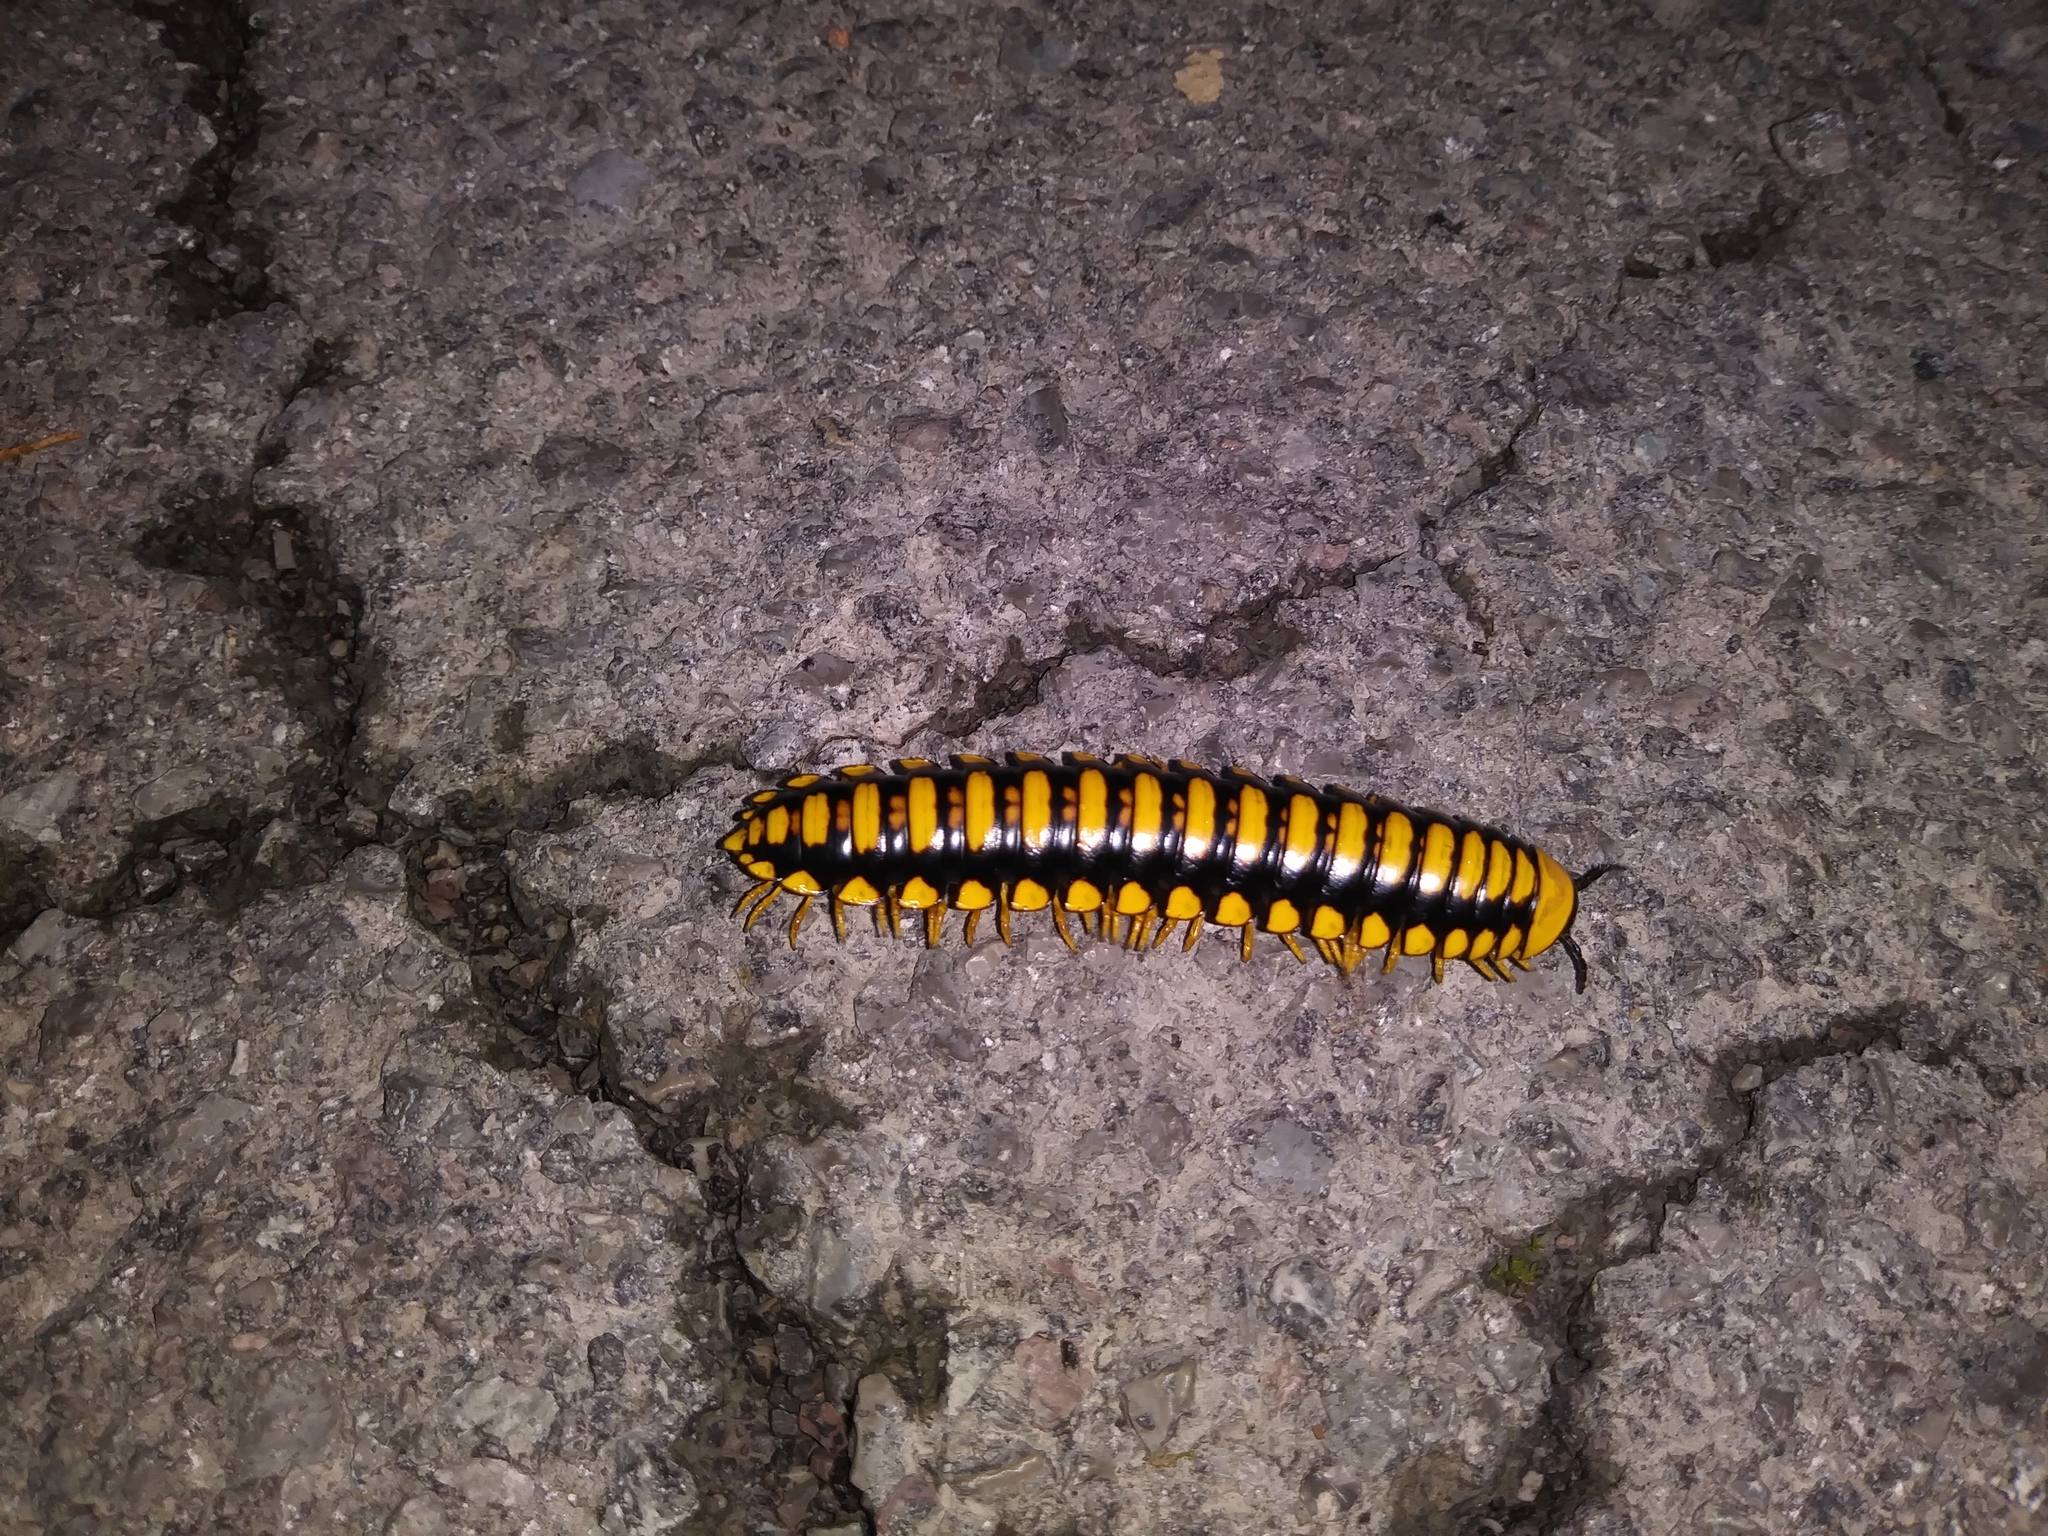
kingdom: Animalia
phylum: Arthropoda
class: Diplopoda
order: Polydesmida
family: Xystodesmidae
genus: Apheloria
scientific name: Apheloria polychroma
